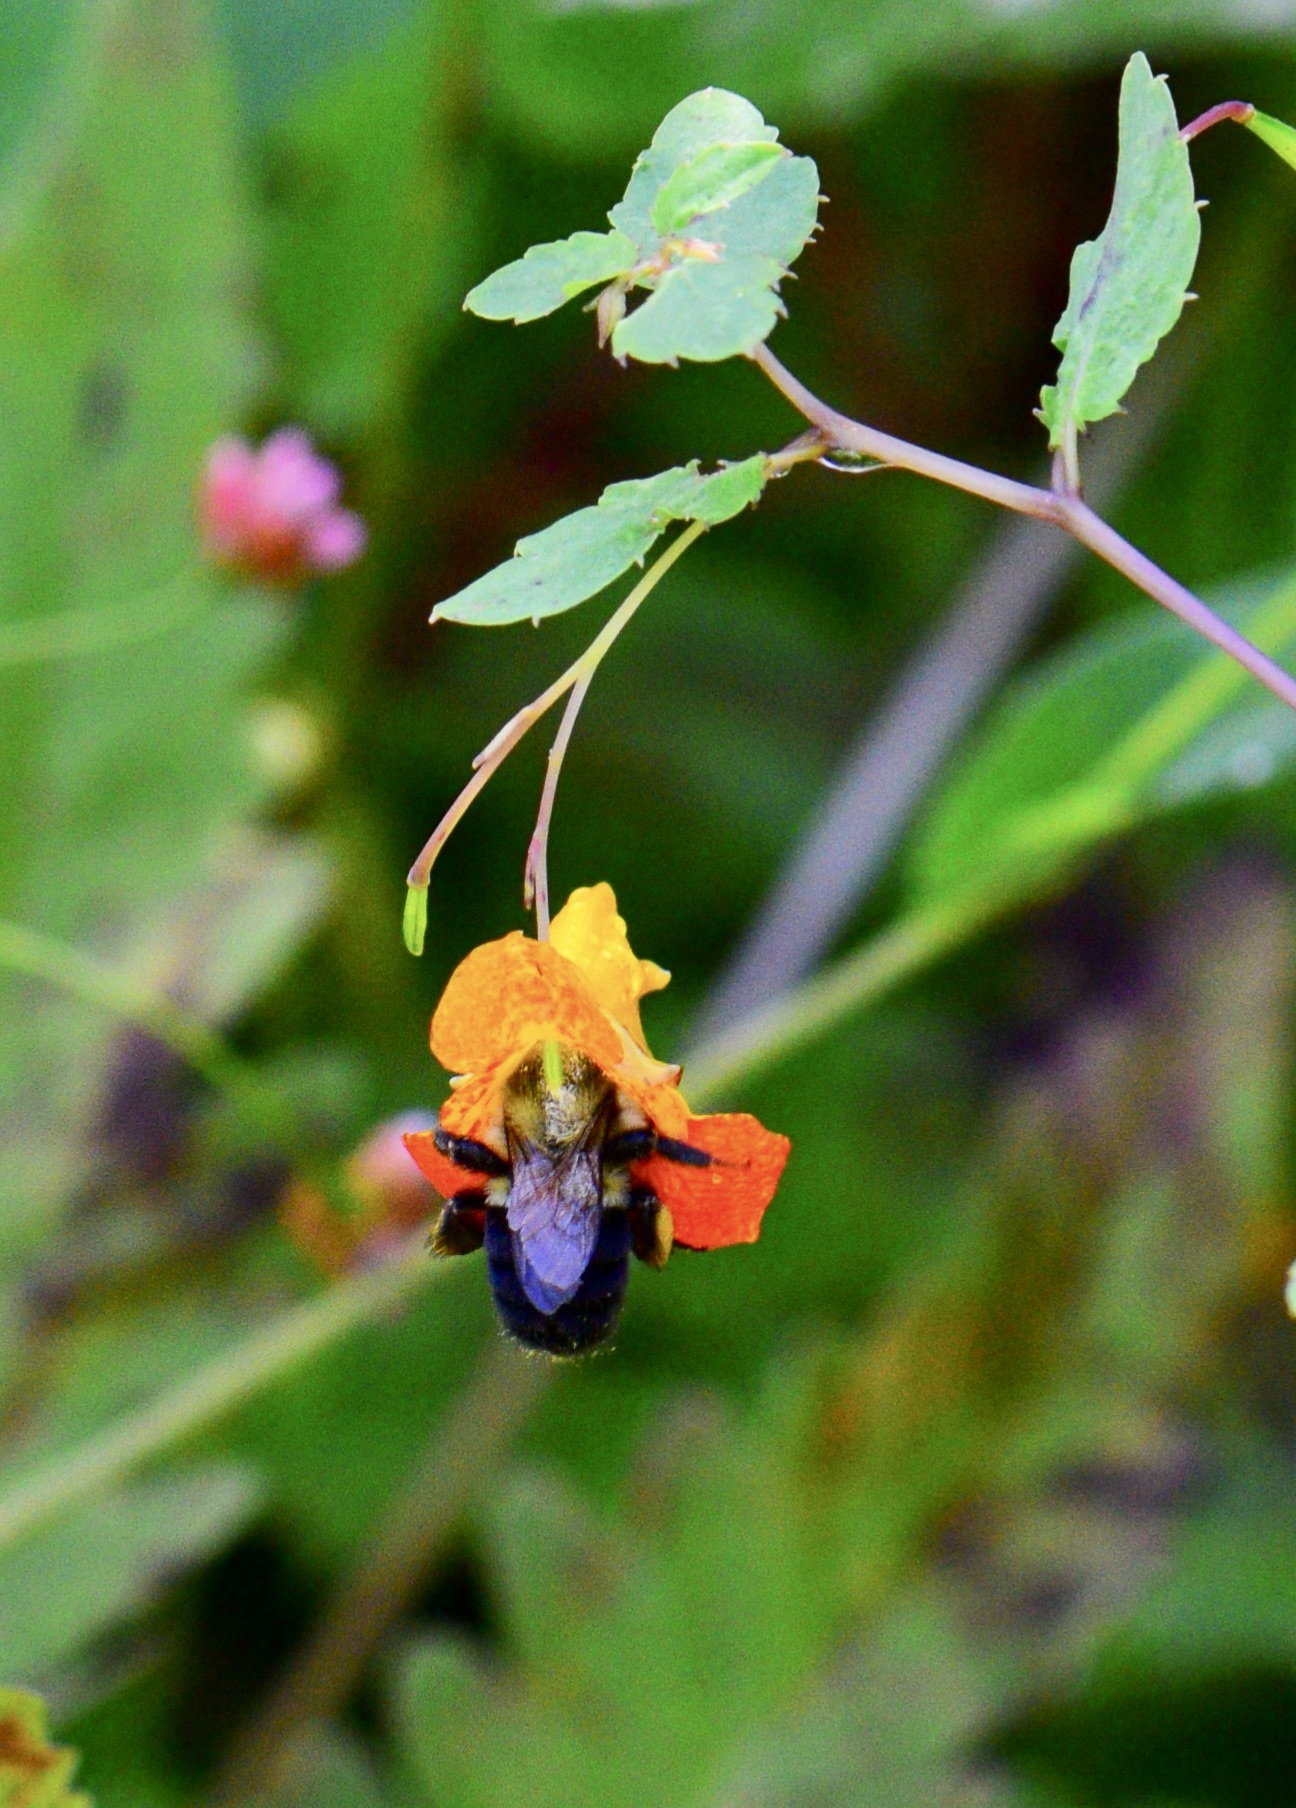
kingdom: Animalia
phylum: Arthropoda
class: Insecta
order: Hymenoptera
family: Apidae
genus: Bombus
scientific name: Bombus impatiens
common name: Common eastern bumble bee
